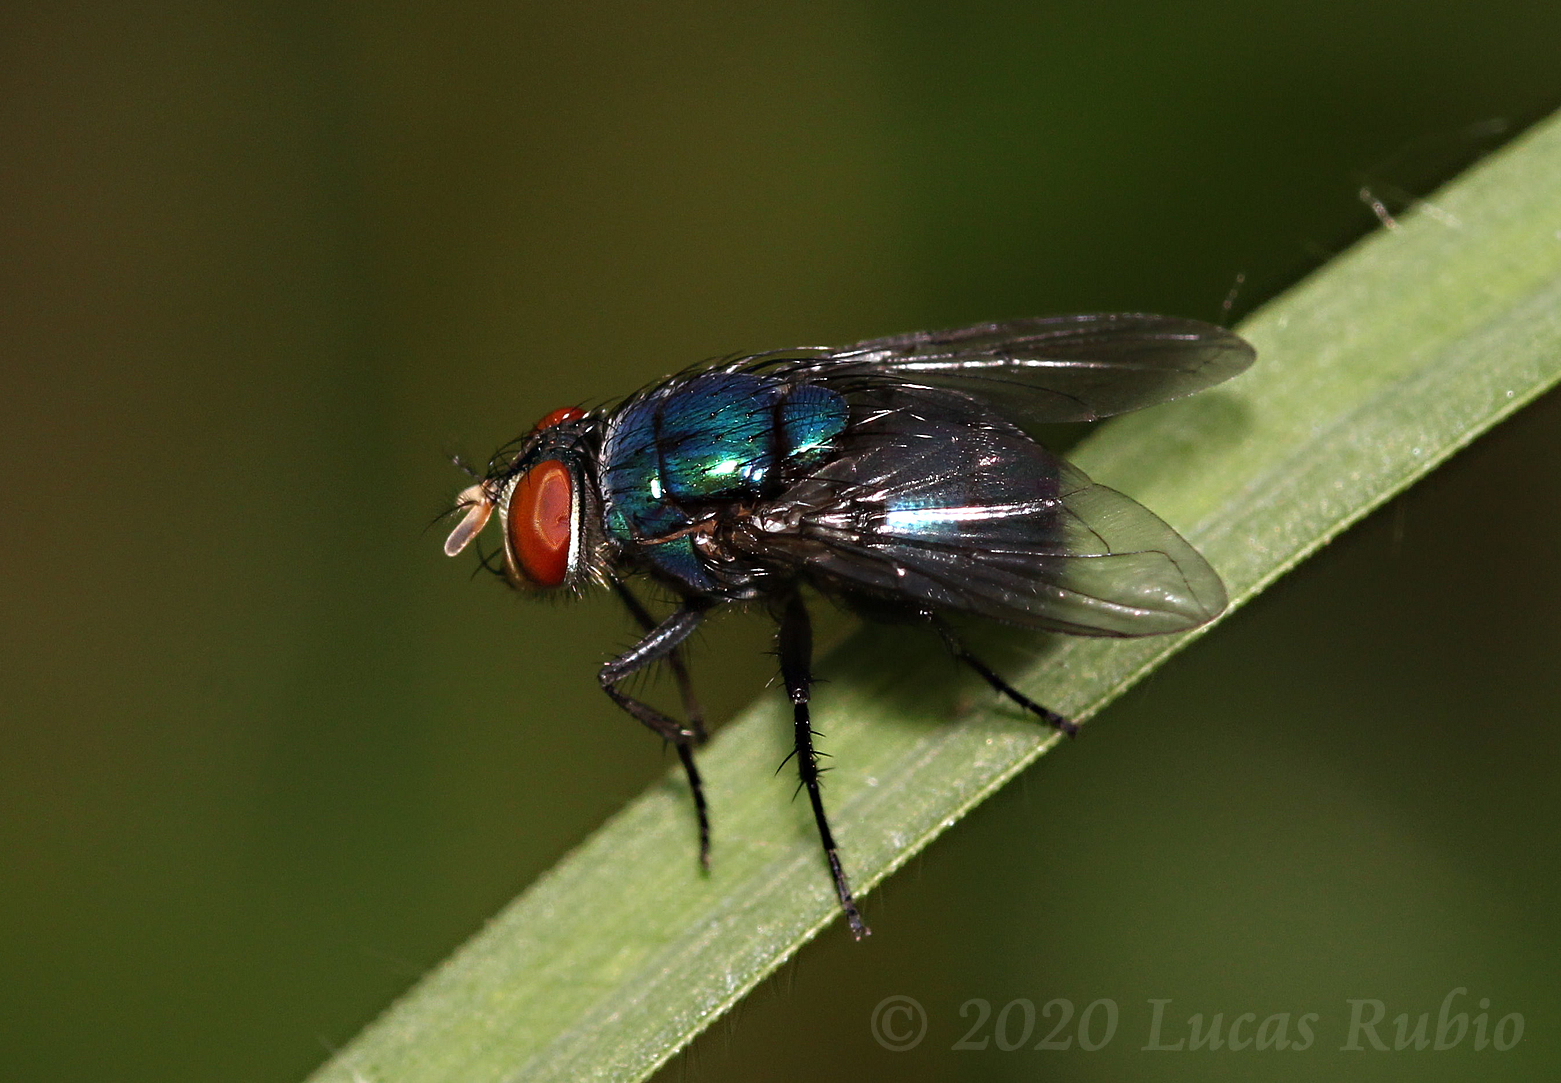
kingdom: Animalia
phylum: Arthropoda
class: Insecta
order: Diptera
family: Calliphoridae
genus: Lucilia
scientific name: Lucilia eximia
